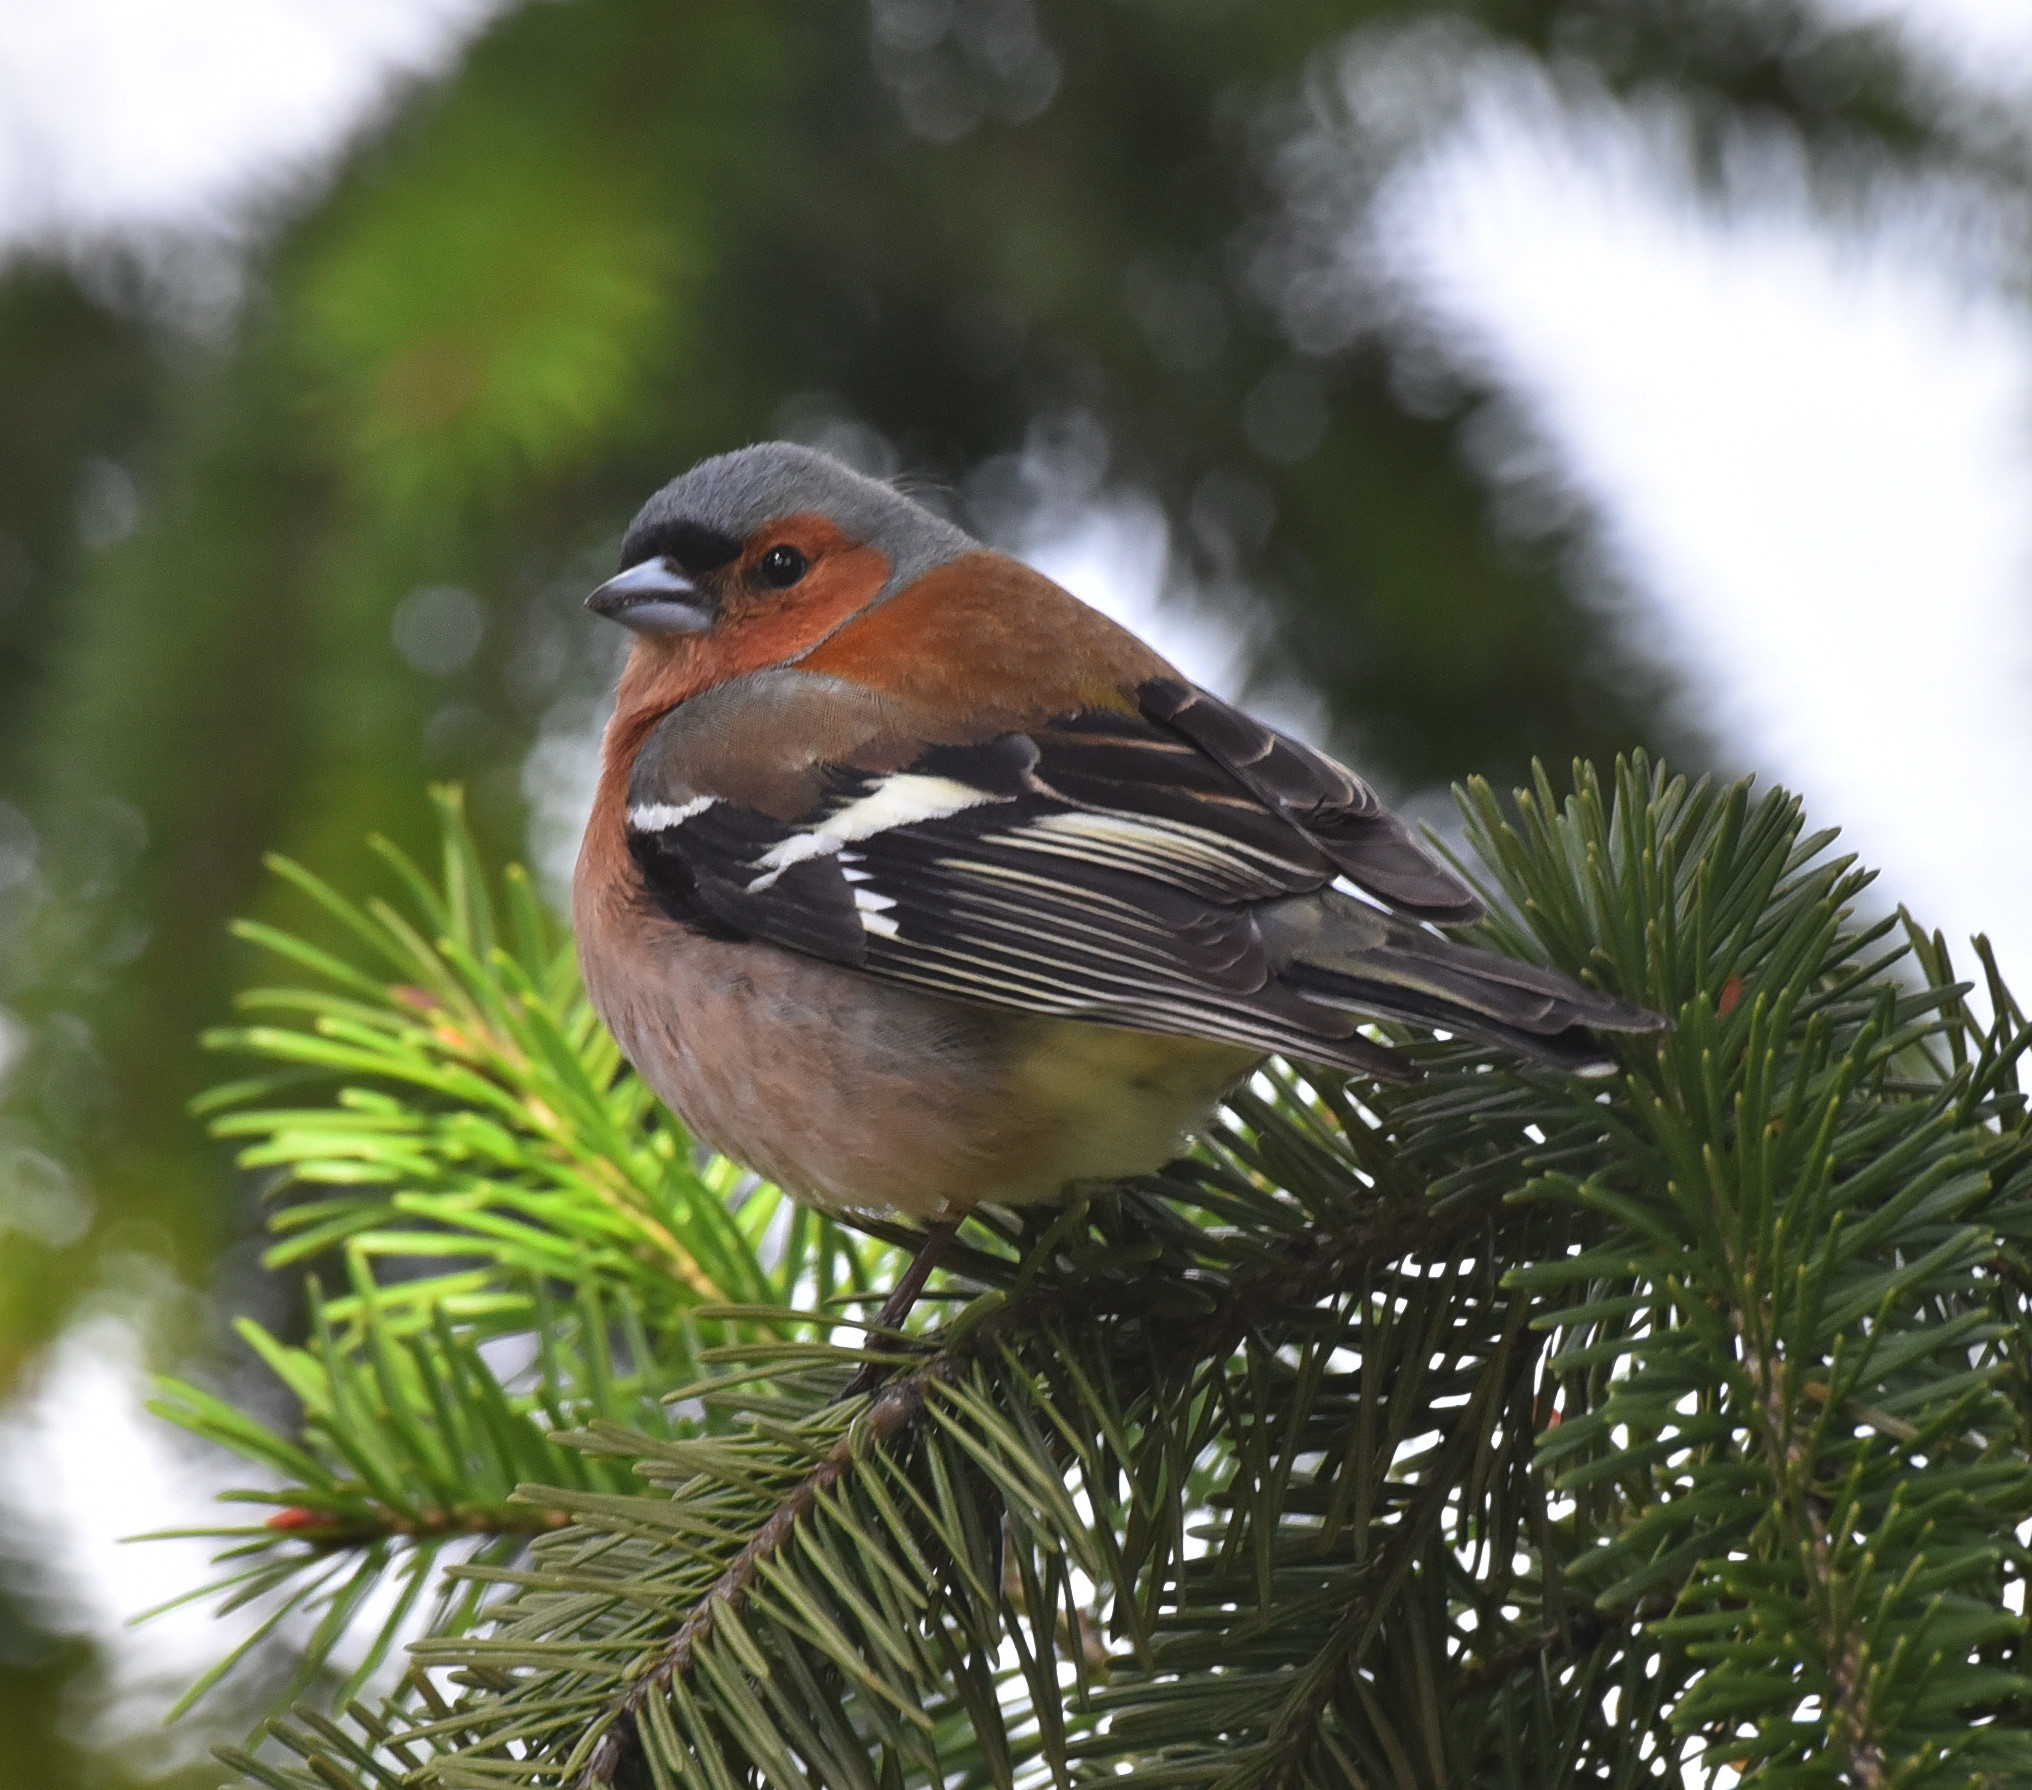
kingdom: Animalia
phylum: Chordata
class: Aves
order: Passeriformes
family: Fringillidae
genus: Fringilla
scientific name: Fringilla coelebs
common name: Common chaffinch
